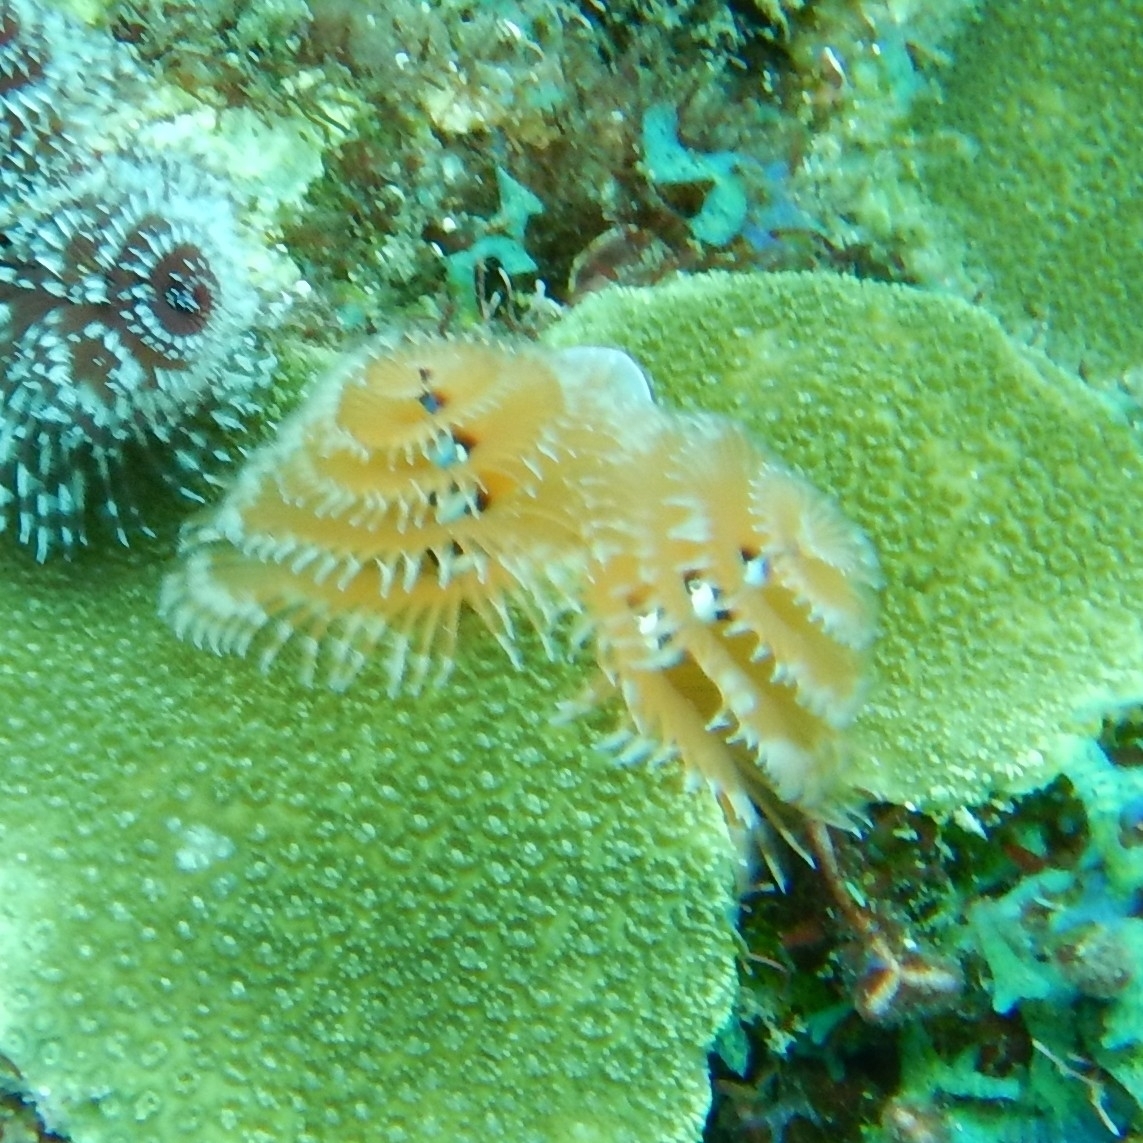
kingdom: Animalia
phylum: Annelida
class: Polychaeta
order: Sabellida
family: Serpulidae
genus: Spirobranchus
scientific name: Spirobranchus giganteus
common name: Christmas tree worm
